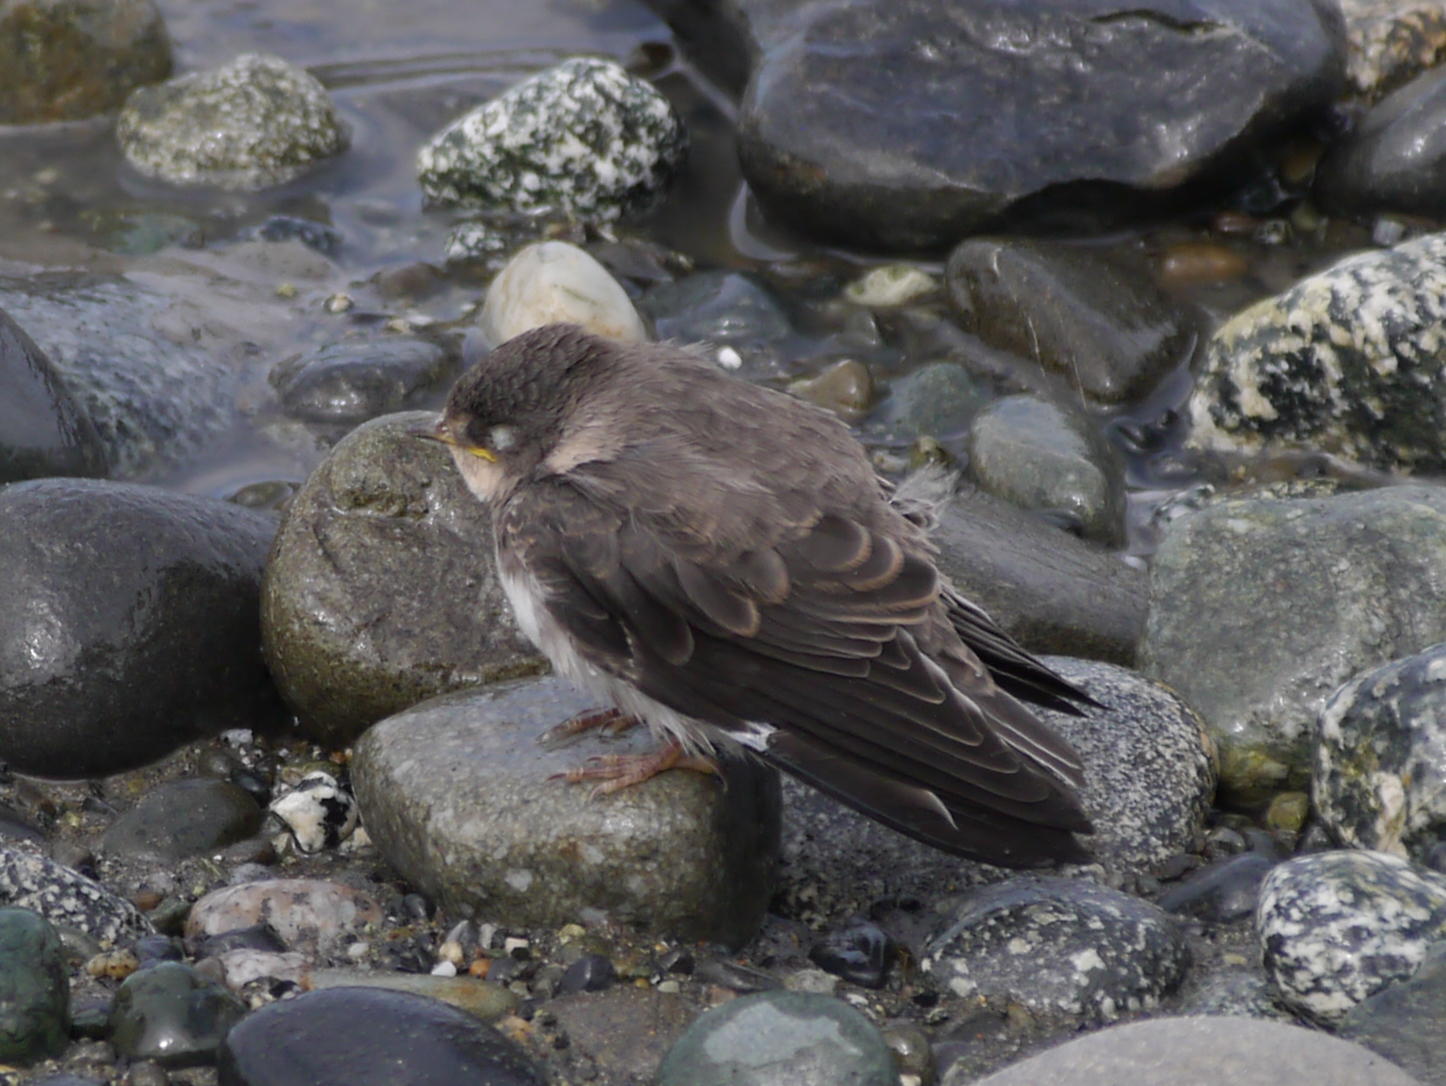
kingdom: Animalia
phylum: Chordata
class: Aves
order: Passeriformes
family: Hirundinidae
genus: Riparia
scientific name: Riparia riparia
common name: Sand martin
